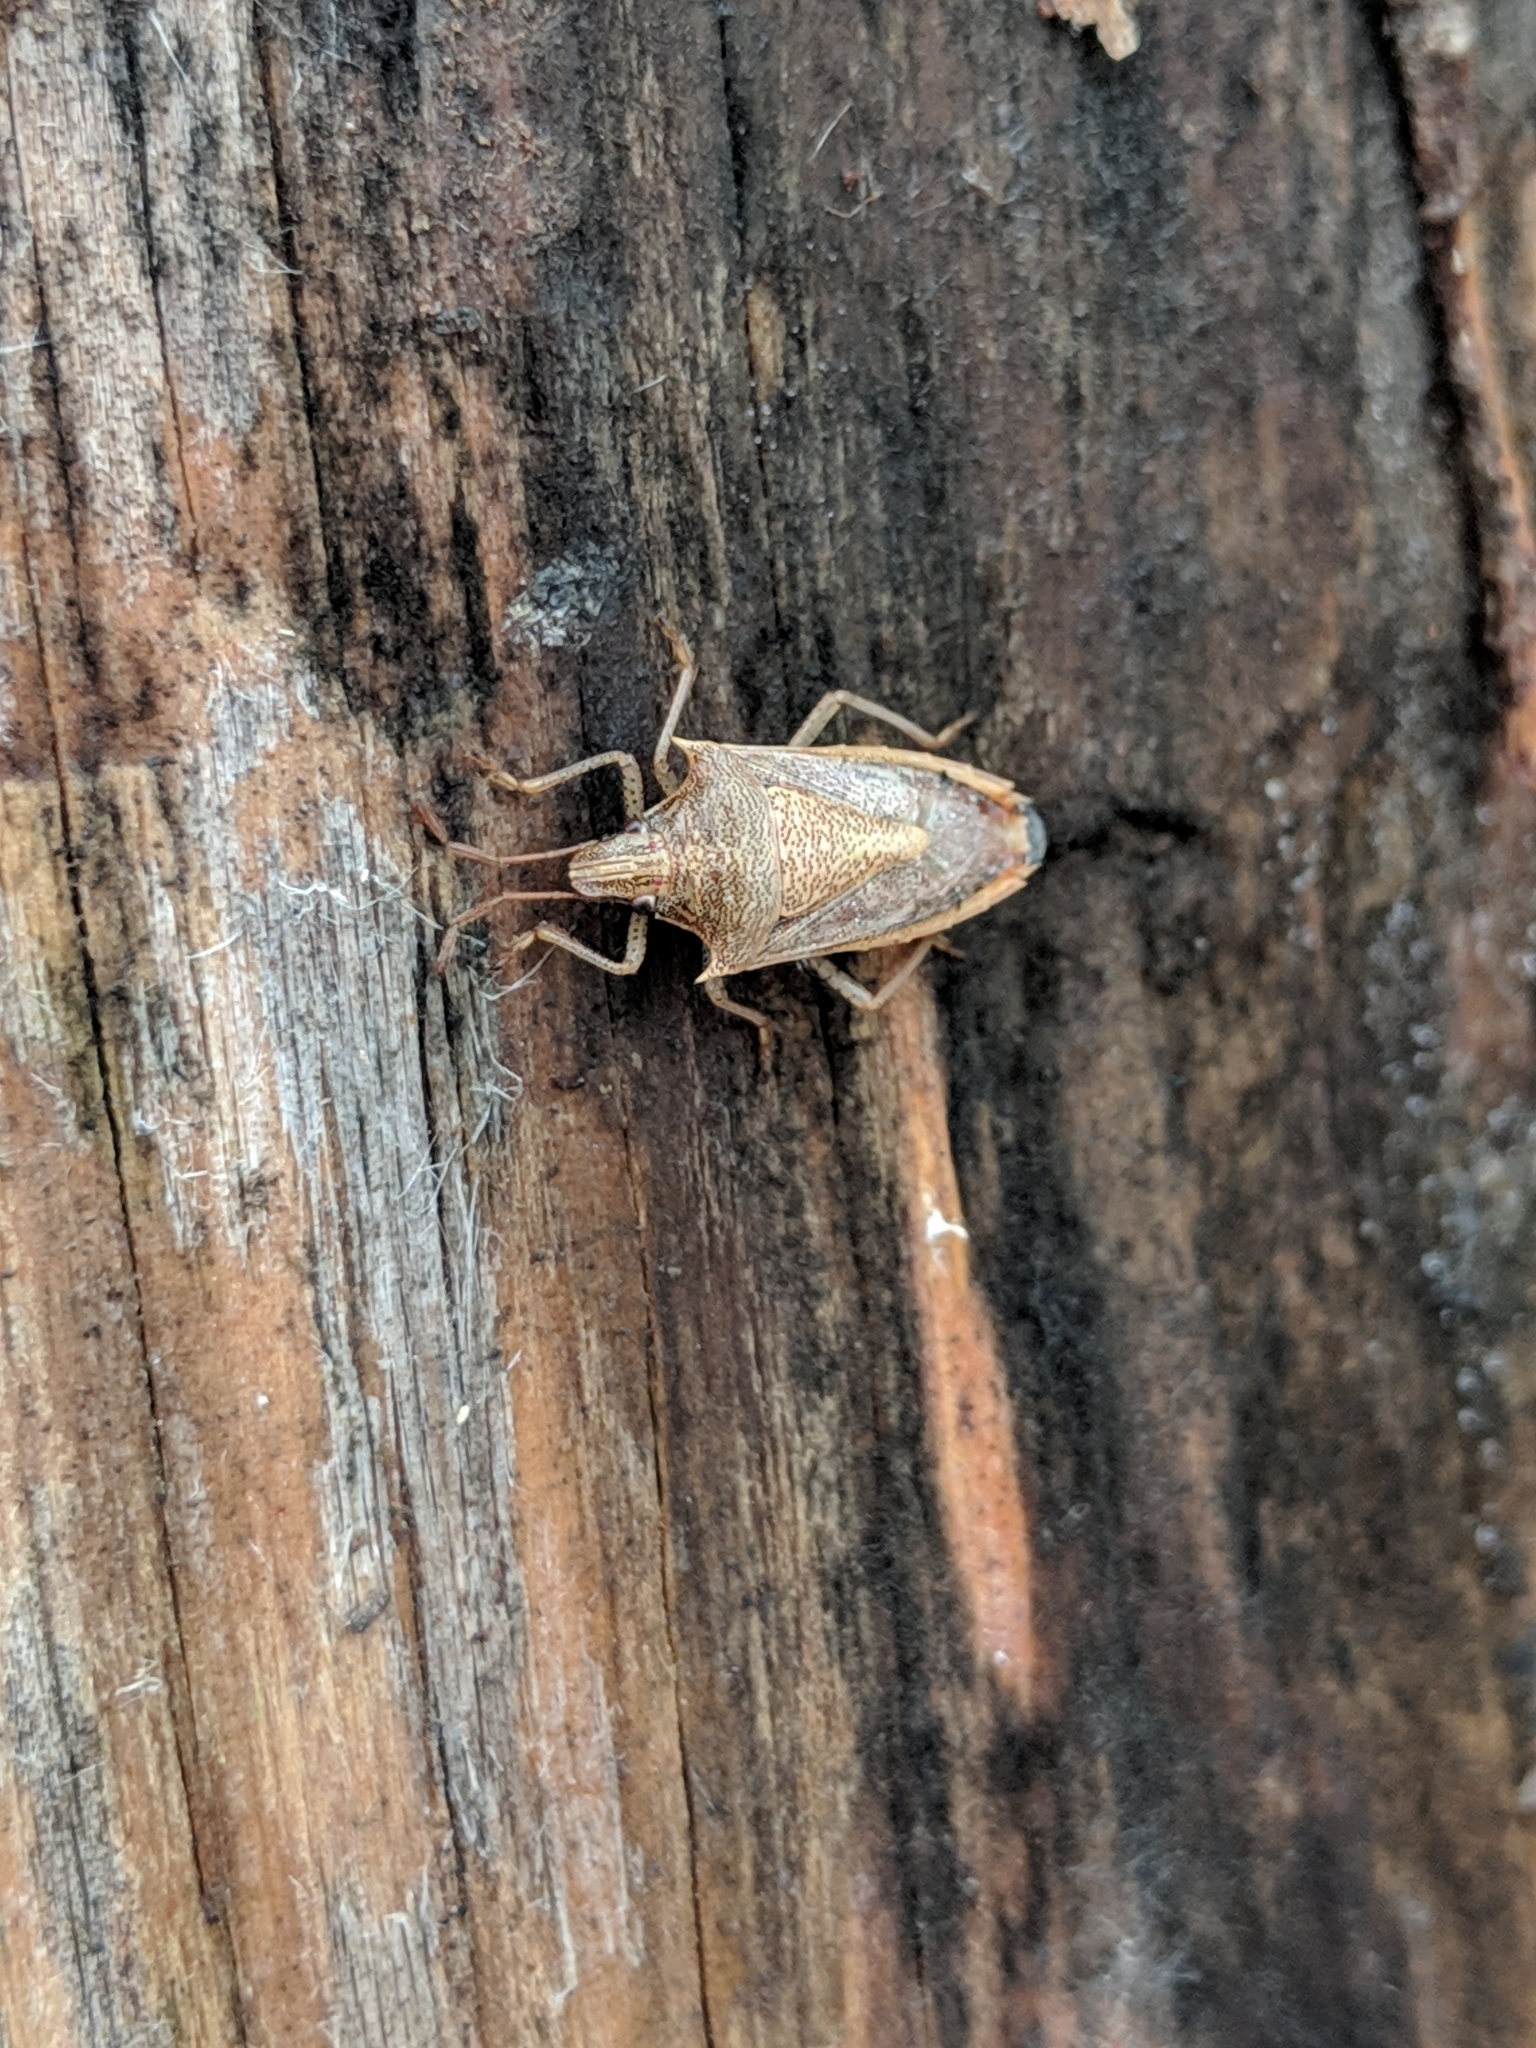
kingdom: Animalia
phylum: Arthropoda
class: Insecta
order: Hemiptera
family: Pentatomidae
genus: Oebalus
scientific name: Oebalus pugnax
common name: Rice stink bug
